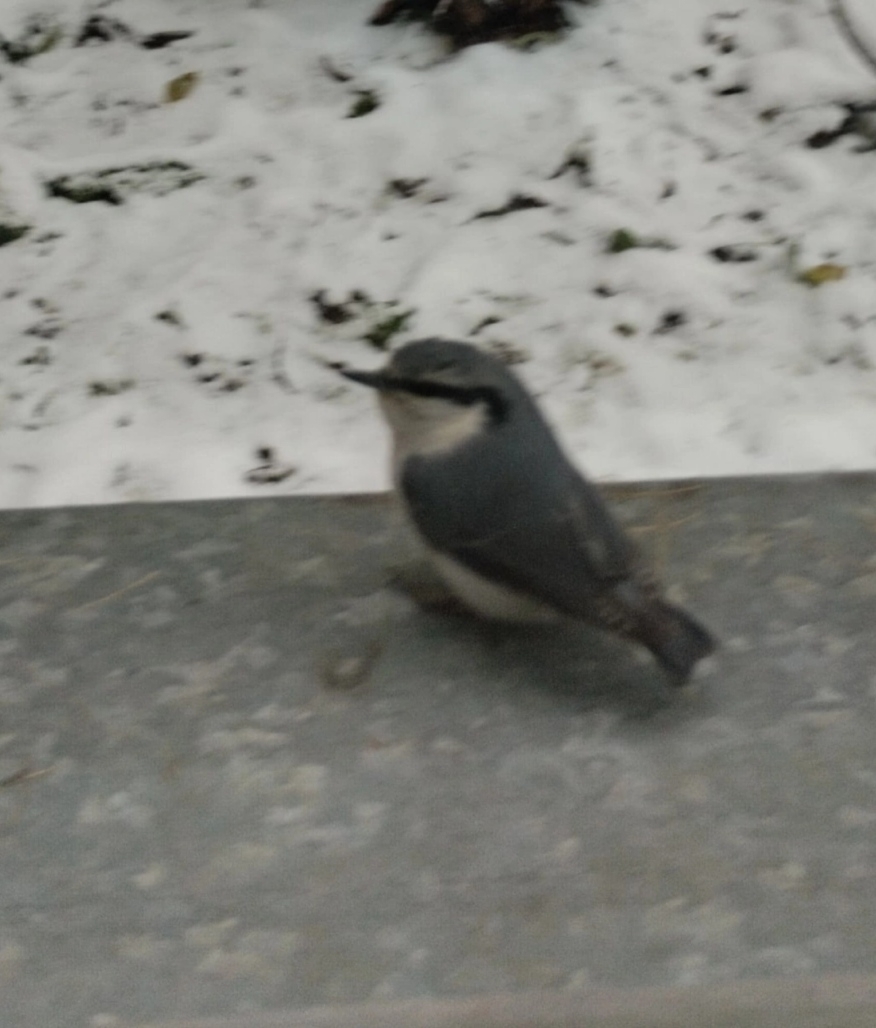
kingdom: Animalia
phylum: Chordata
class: Aves
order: Passeriformes
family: Sittidae
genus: Sitta
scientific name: Sitta europaea
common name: Eurasian nuthatch
